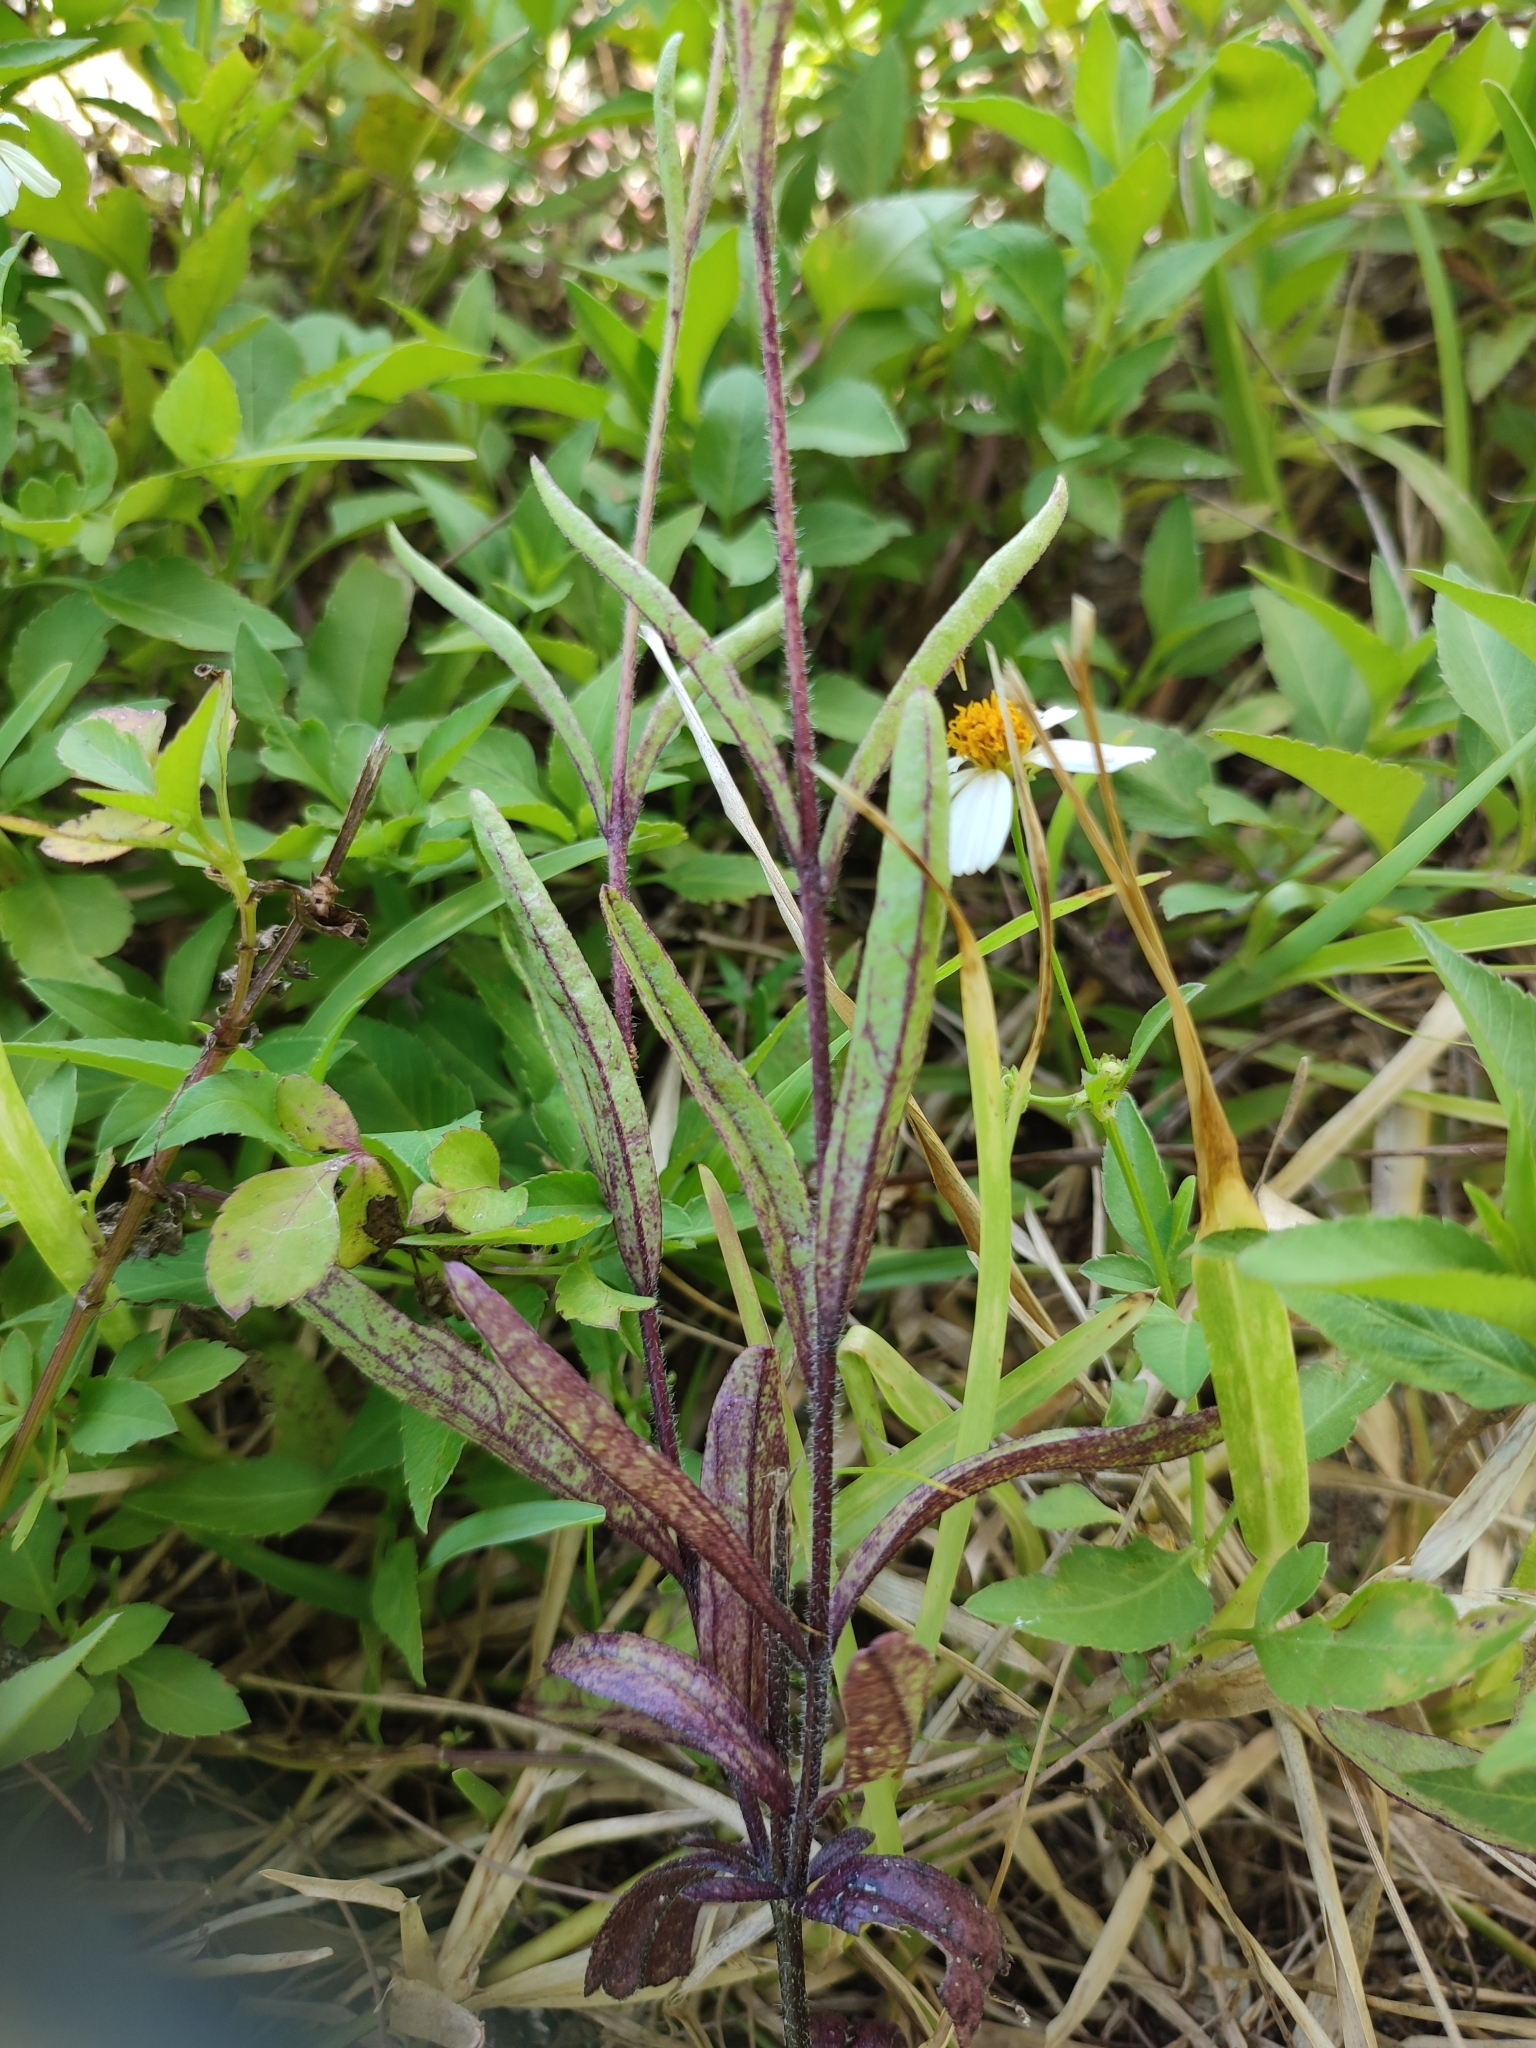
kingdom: Plantae
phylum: Tracheophyta
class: Magnoliopsida
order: Lamiales
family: Orobanchaceae
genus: Buchnera
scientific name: Buchnera hispida
